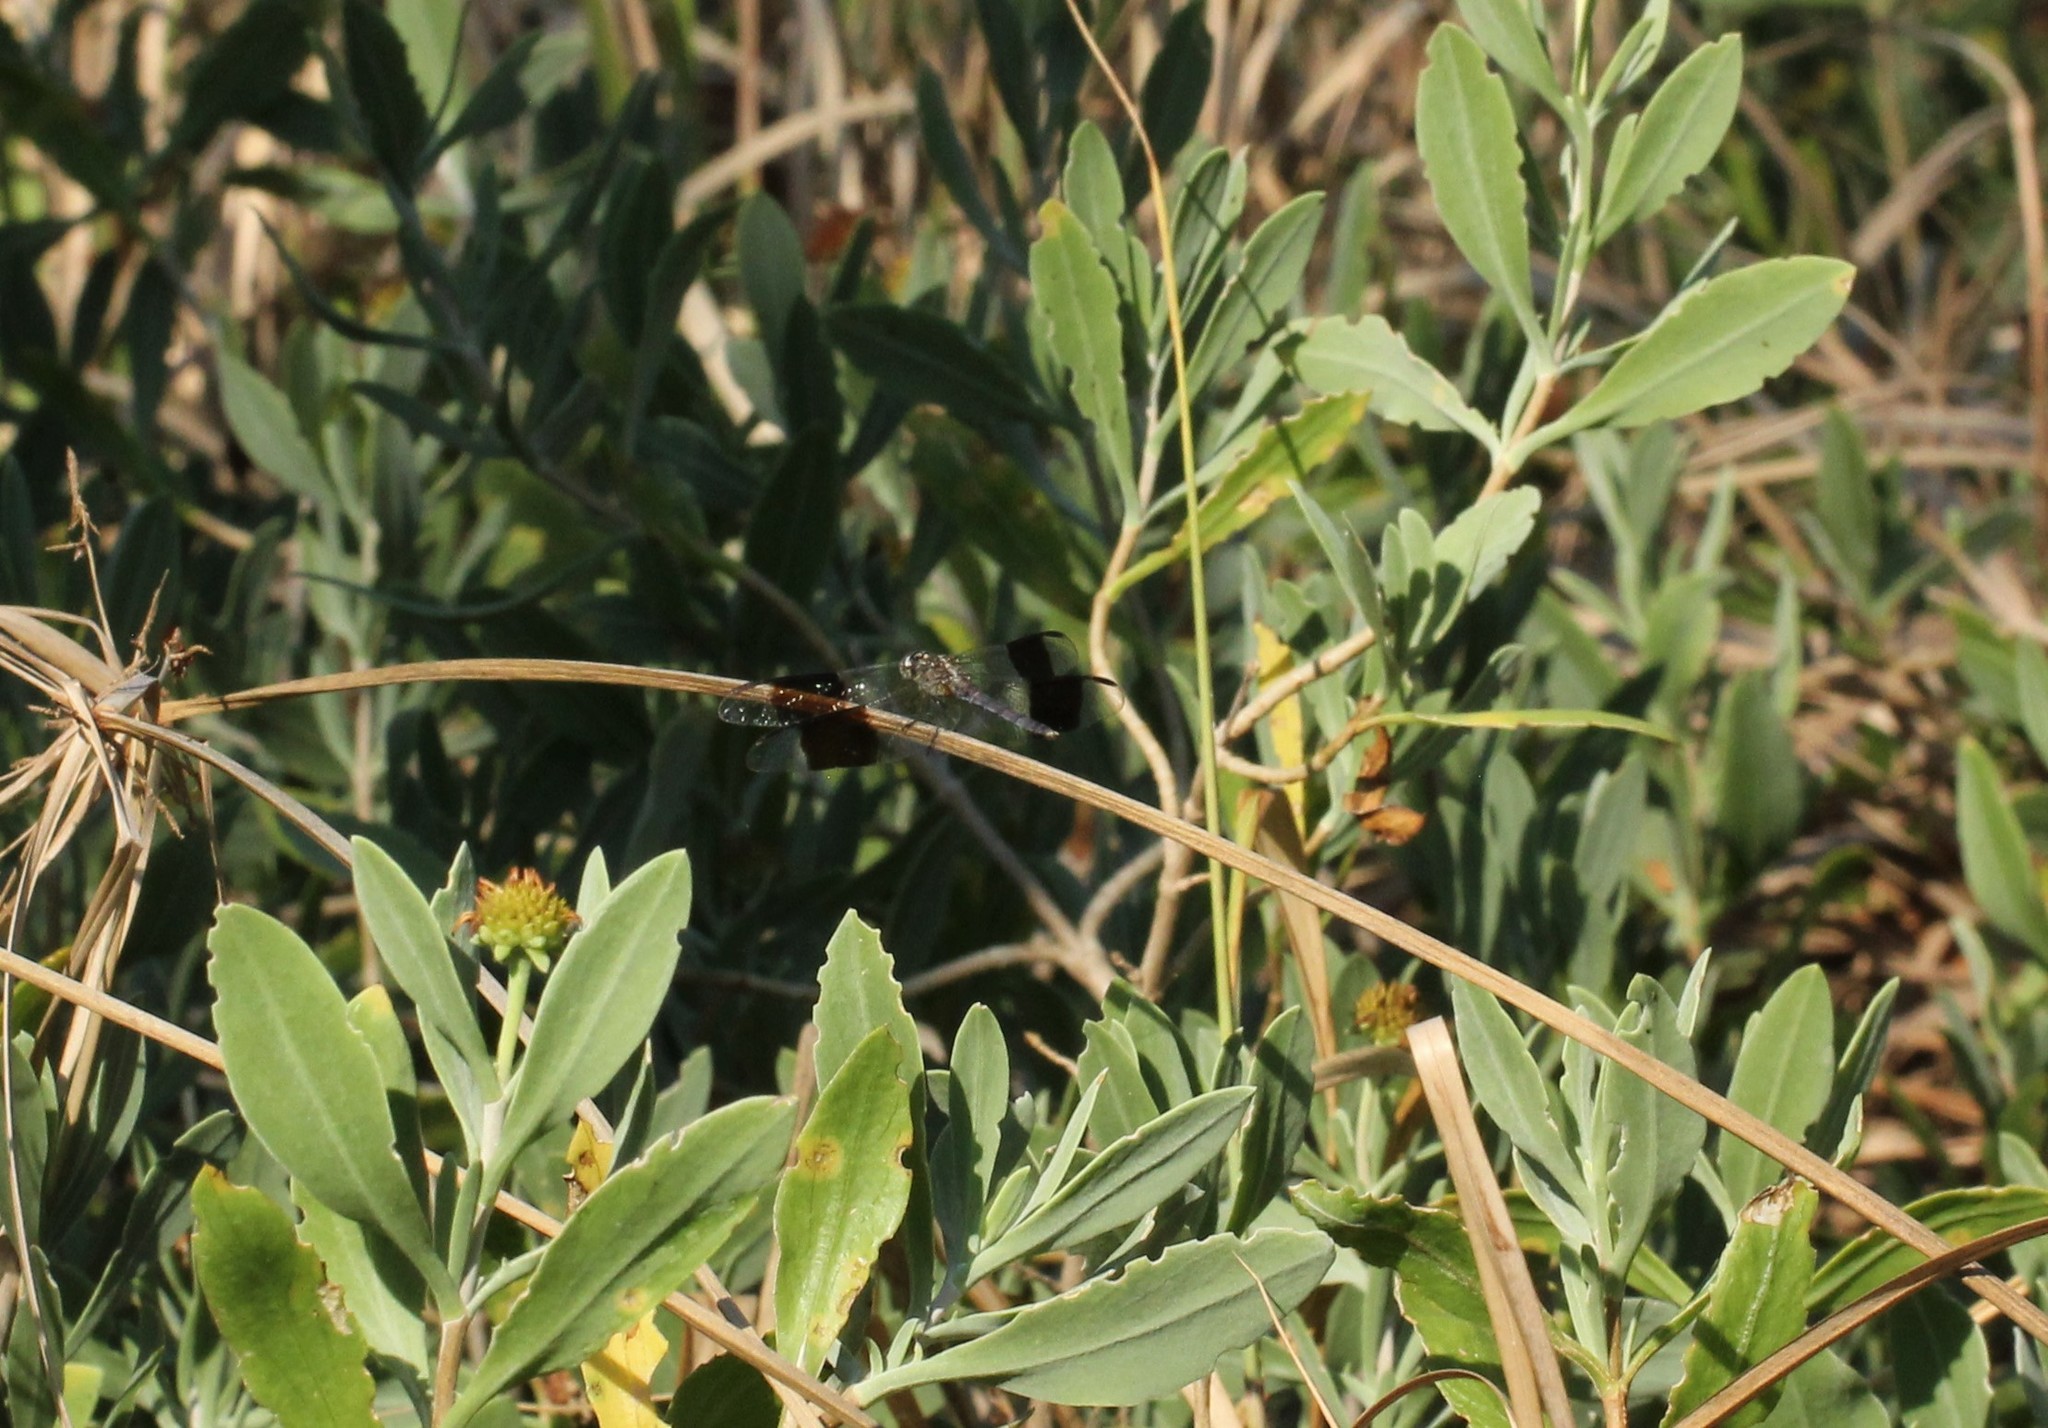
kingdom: Animalia
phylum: Arthropoda
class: Insecta
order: Odonata
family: Libellulidae
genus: Erythrodiplax
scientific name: Erythrodiplax umbrata
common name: Band-winged dragonlet
